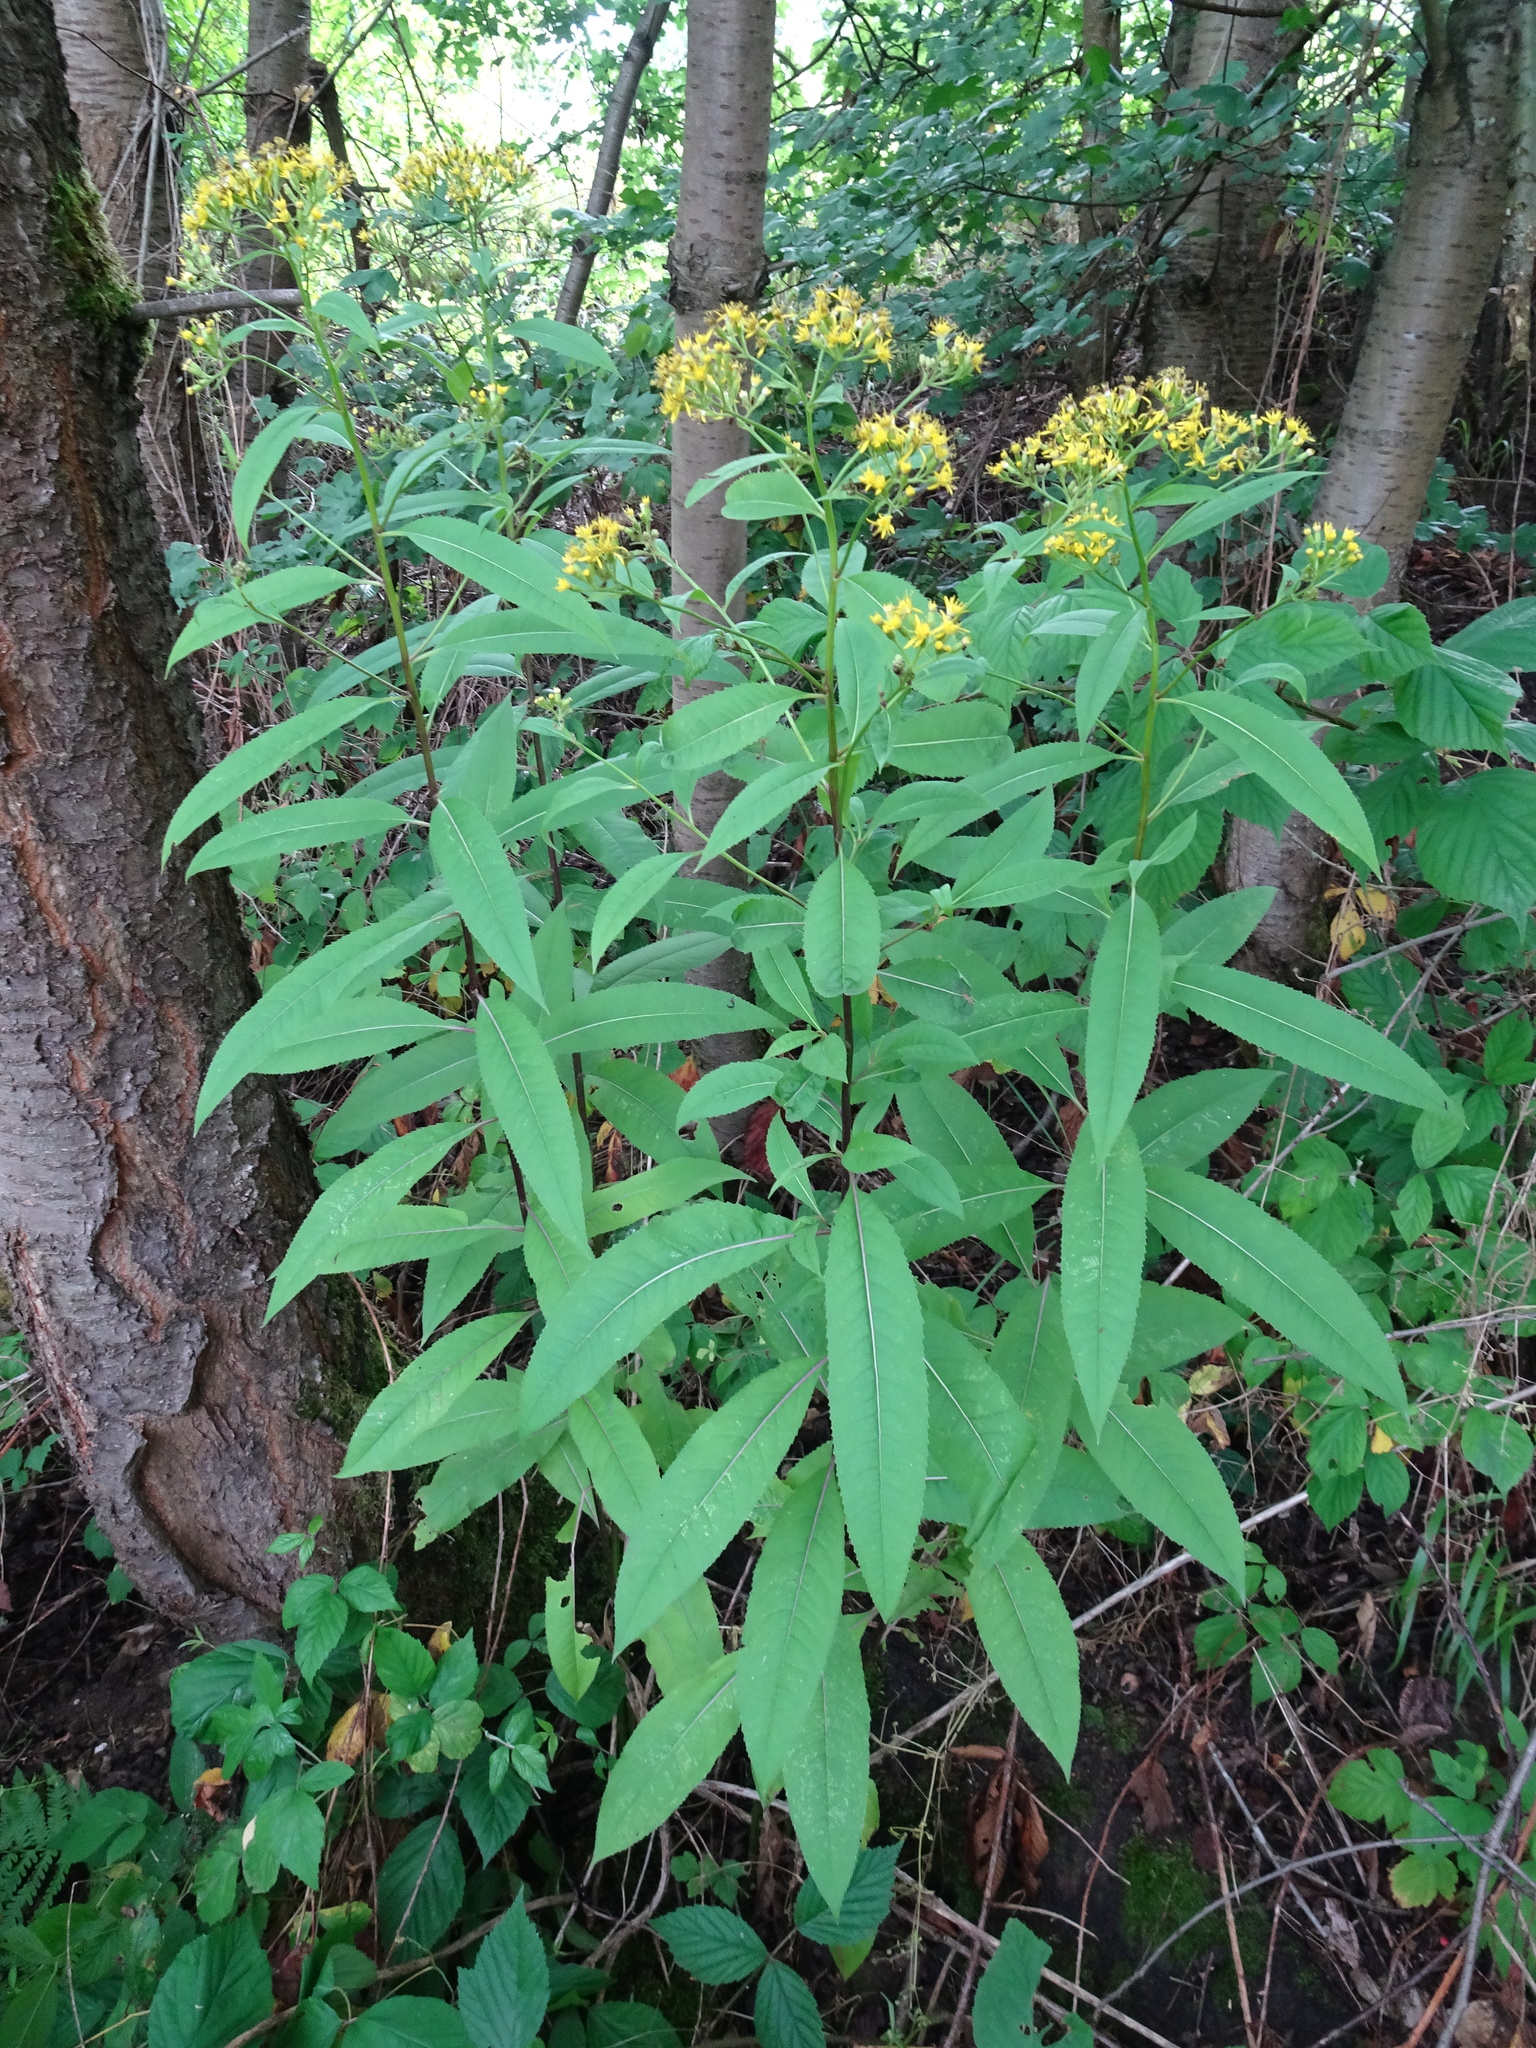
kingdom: Plantae
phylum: Tracheophyta
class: Magnoliopsida
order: Asterales
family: Asteraceae
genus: Senecio
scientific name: Senecio ovatus
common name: Wood ragwort
